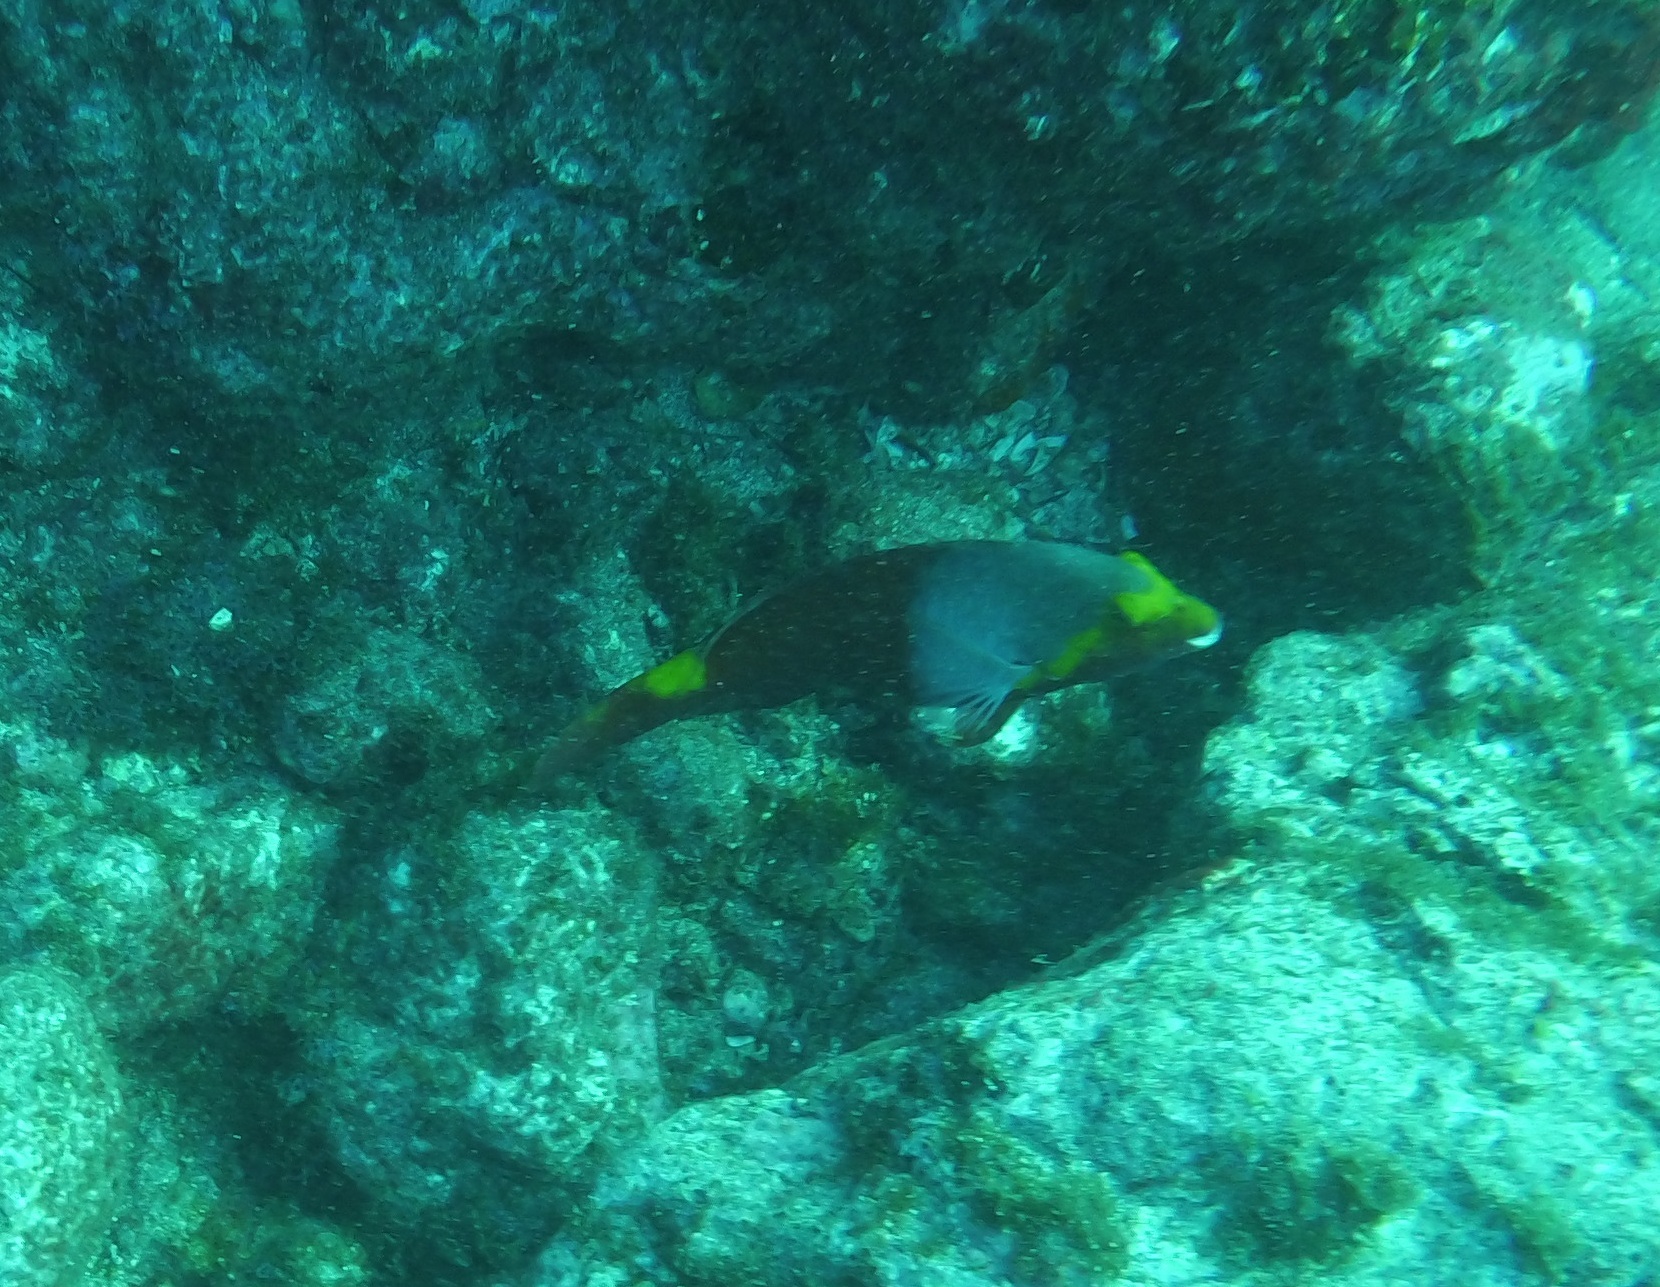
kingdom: Animalia
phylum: Chordata
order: Perciformes
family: Scaridae
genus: Sparisoma
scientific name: Sparisoma cretense
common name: Parrotfish
